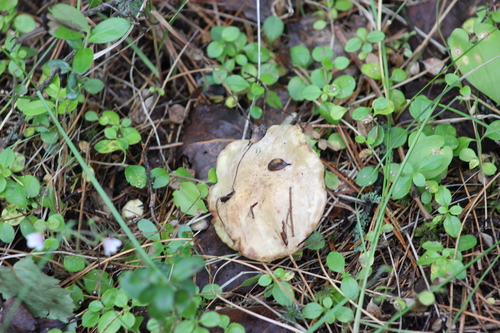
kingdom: Fungi
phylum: Basidiomycota
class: Agaricomycetes
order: Boletales
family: Suillaceae
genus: Suillus
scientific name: Suillus placidus
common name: Slippery white bolete
